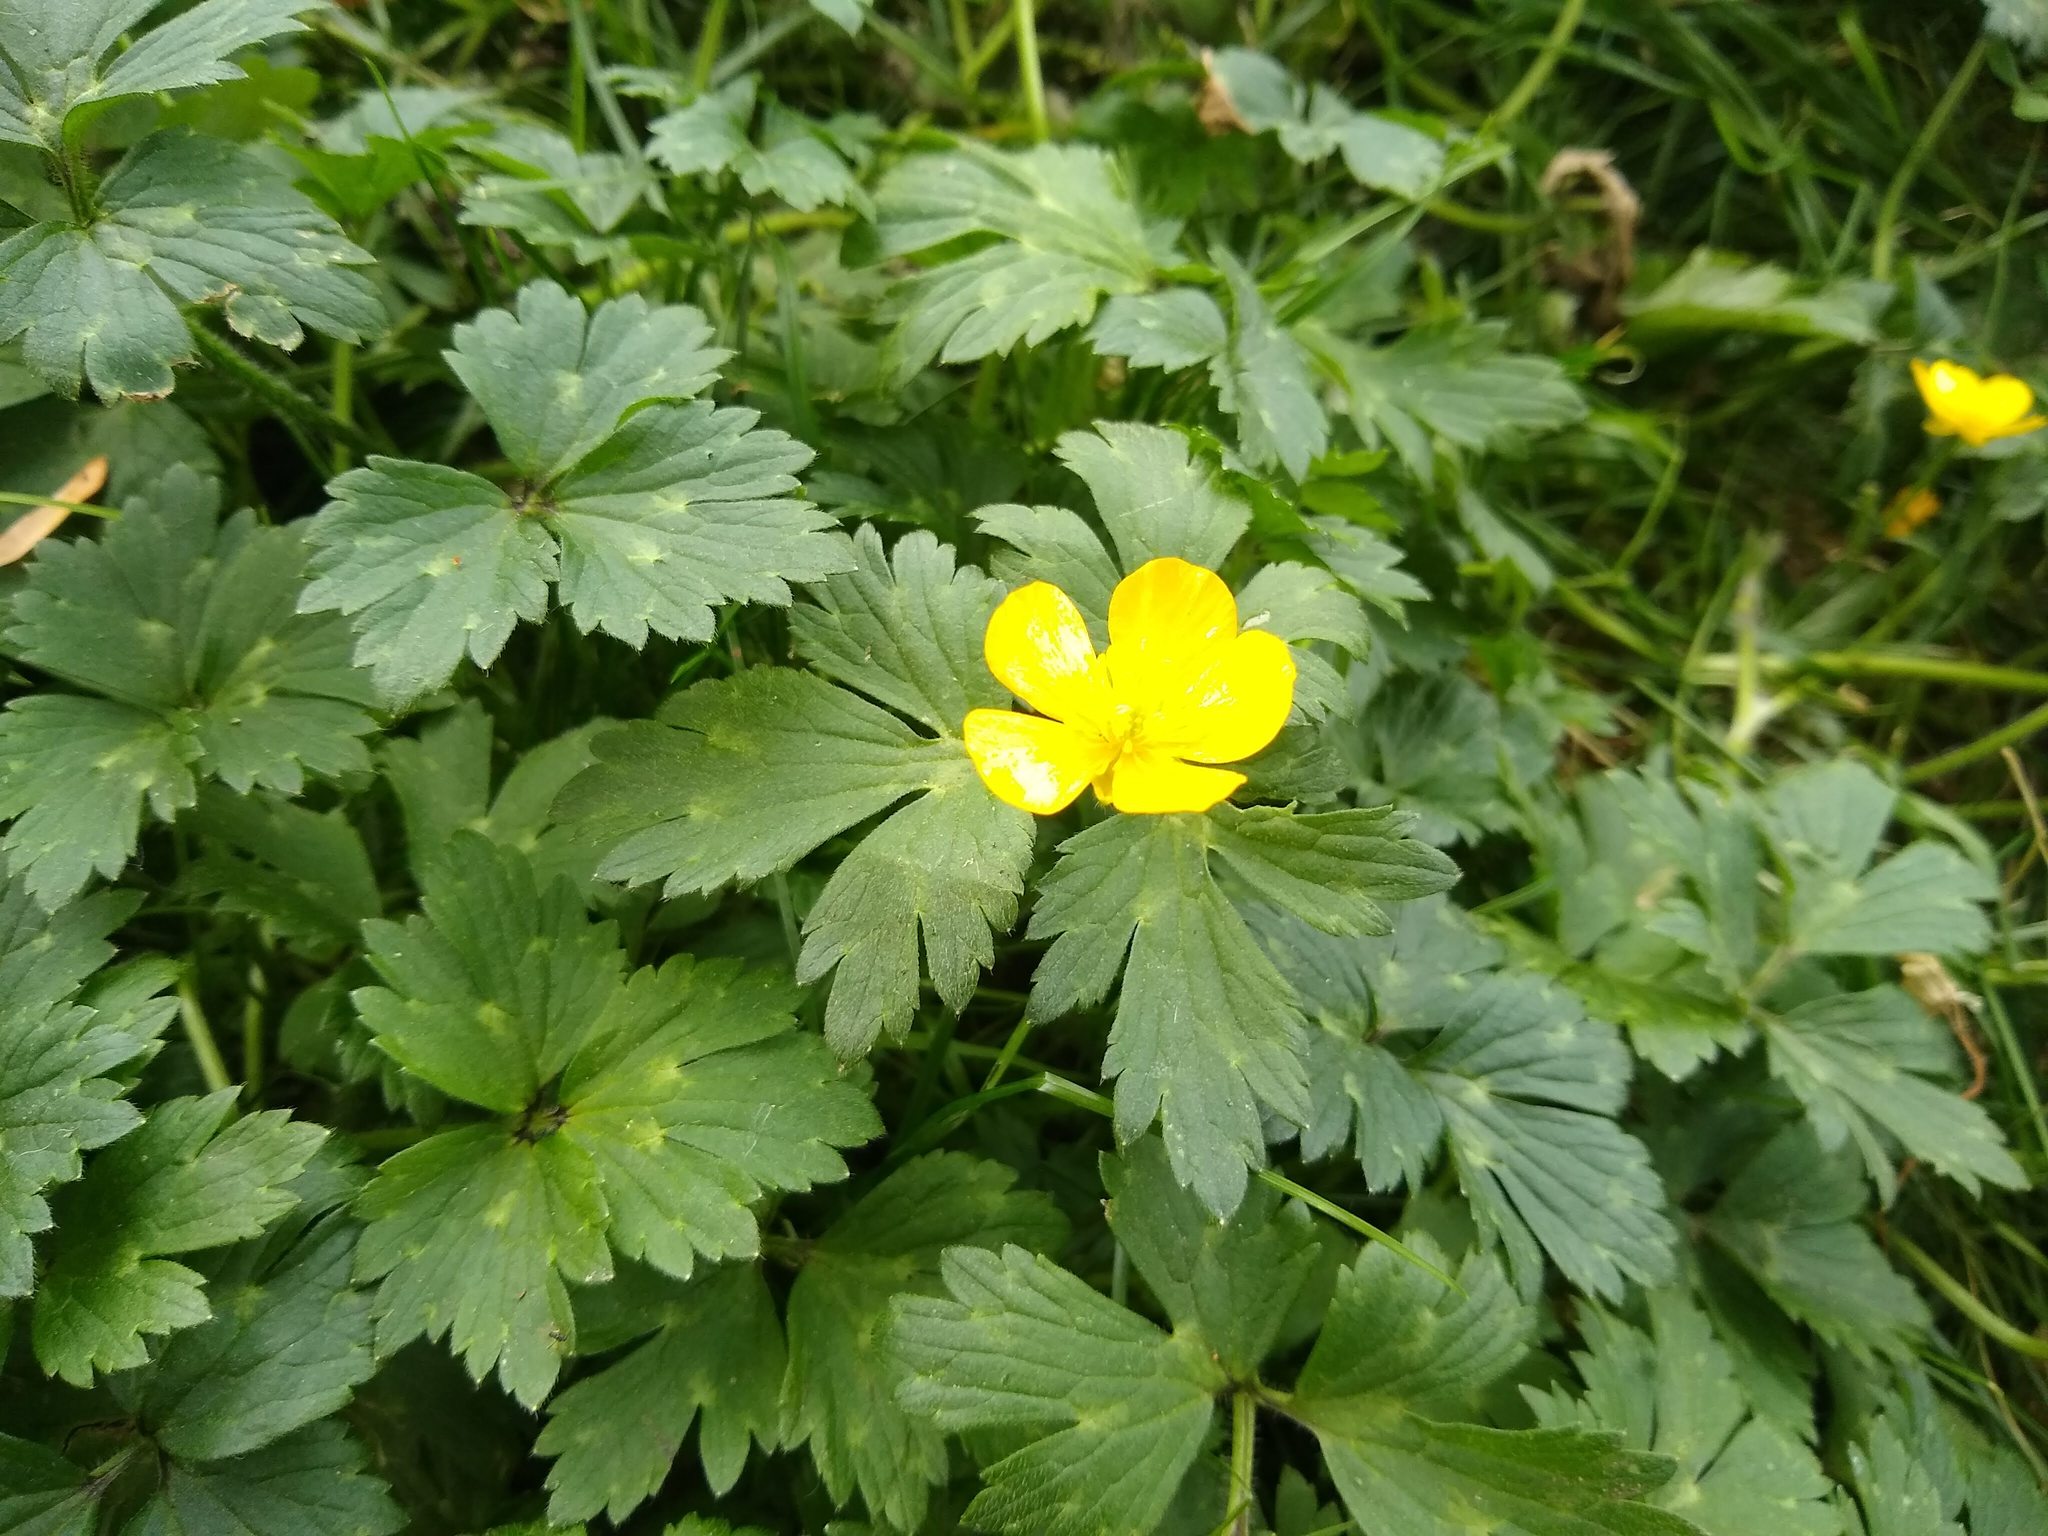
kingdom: Plantae
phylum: Tracheophyta
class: Magnoliopsida
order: Ranunculales
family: Ranunculaceae
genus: Ranunculus
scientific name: Ranunculus repens
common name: Creeping buttercup
